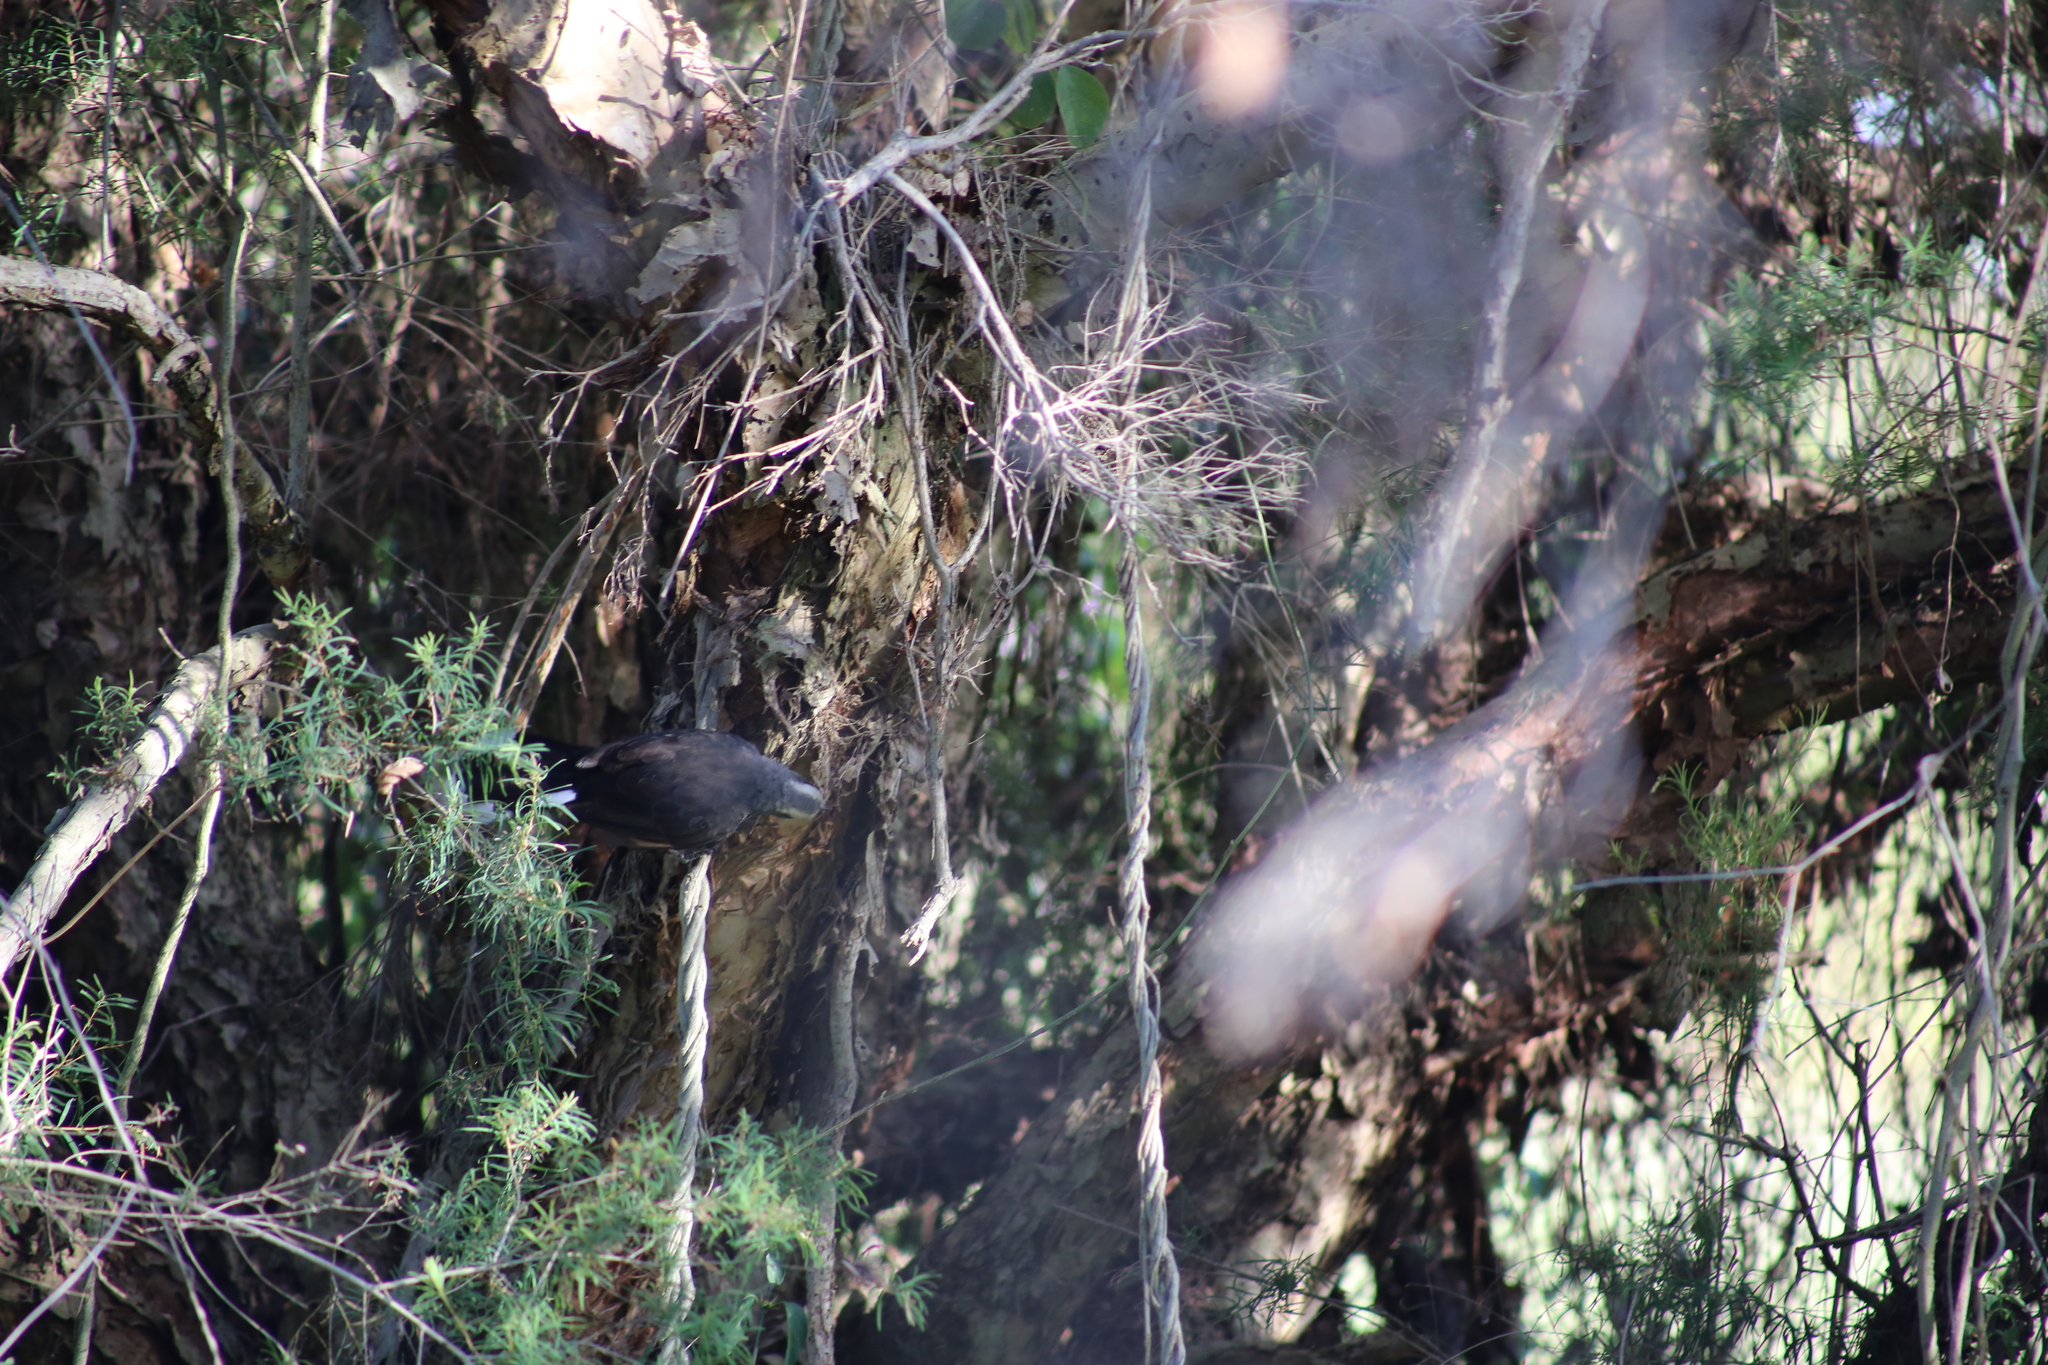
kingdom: Animalia
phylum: Chordata
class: Aves
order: Passeriformes
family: Pomatostomidae
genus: Pomatostomus
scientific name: Pomatostomus temporalis
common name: Grey-crowned babbler
